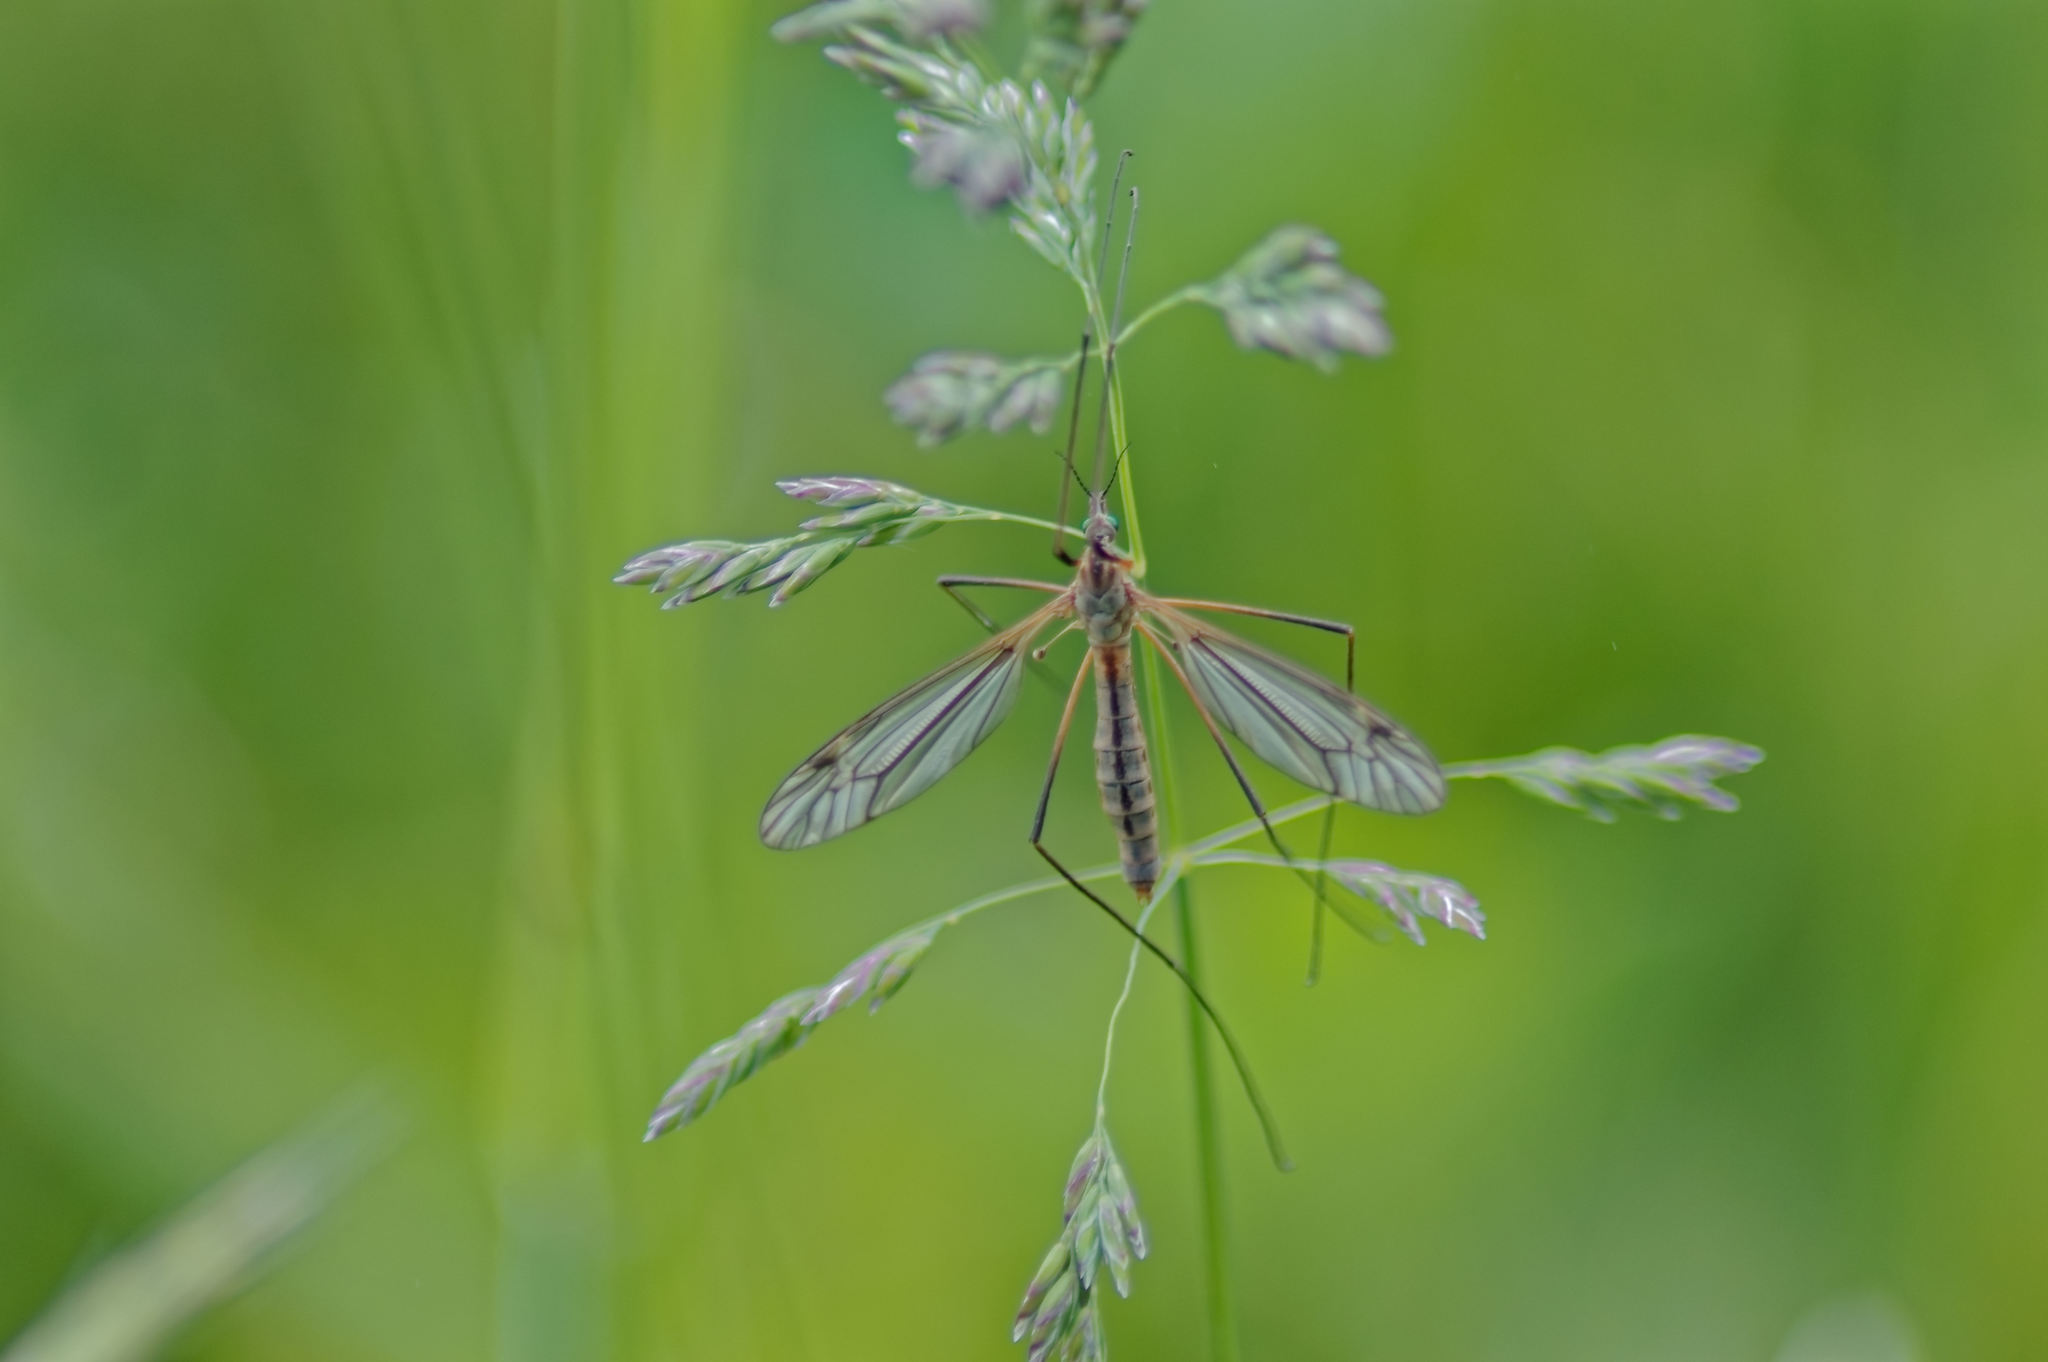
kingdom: Animalia
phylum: Arthropoda
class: Insecta
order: Diptera
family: Tipulidae
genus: Tipula
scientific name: Tipula vernalis
